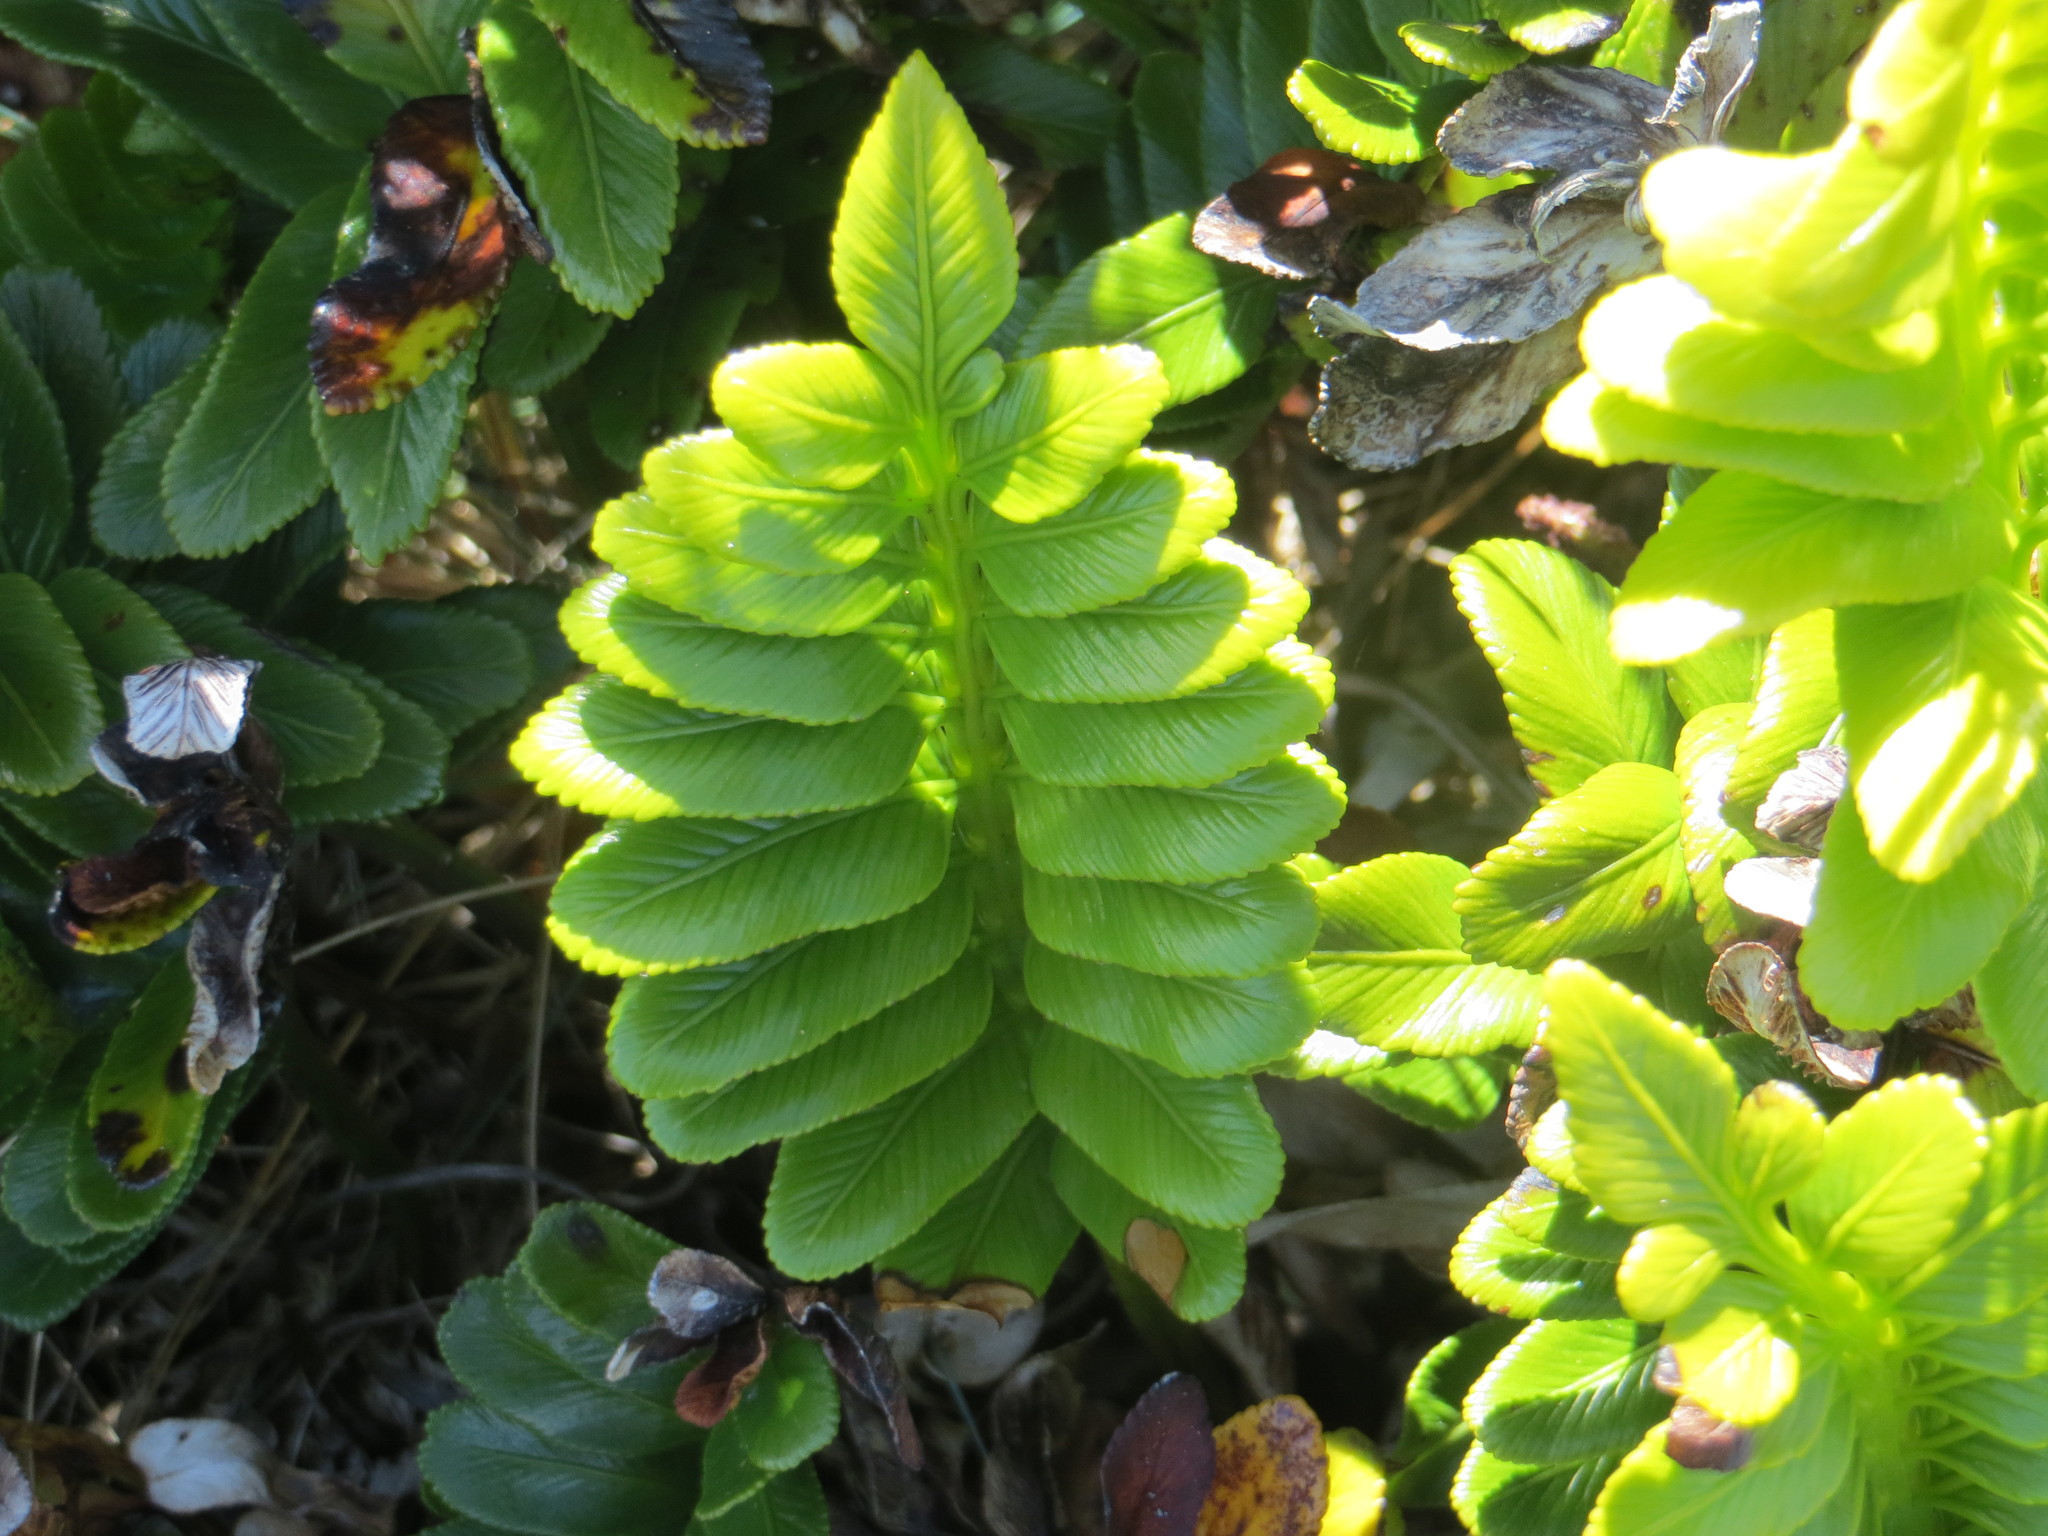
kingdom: Plantae
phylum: Tracheophyta
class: Polypodiopsida
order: Polypodiales
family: Aspleniaceae
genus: Asplenium
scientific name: Asplenium obtusatum
